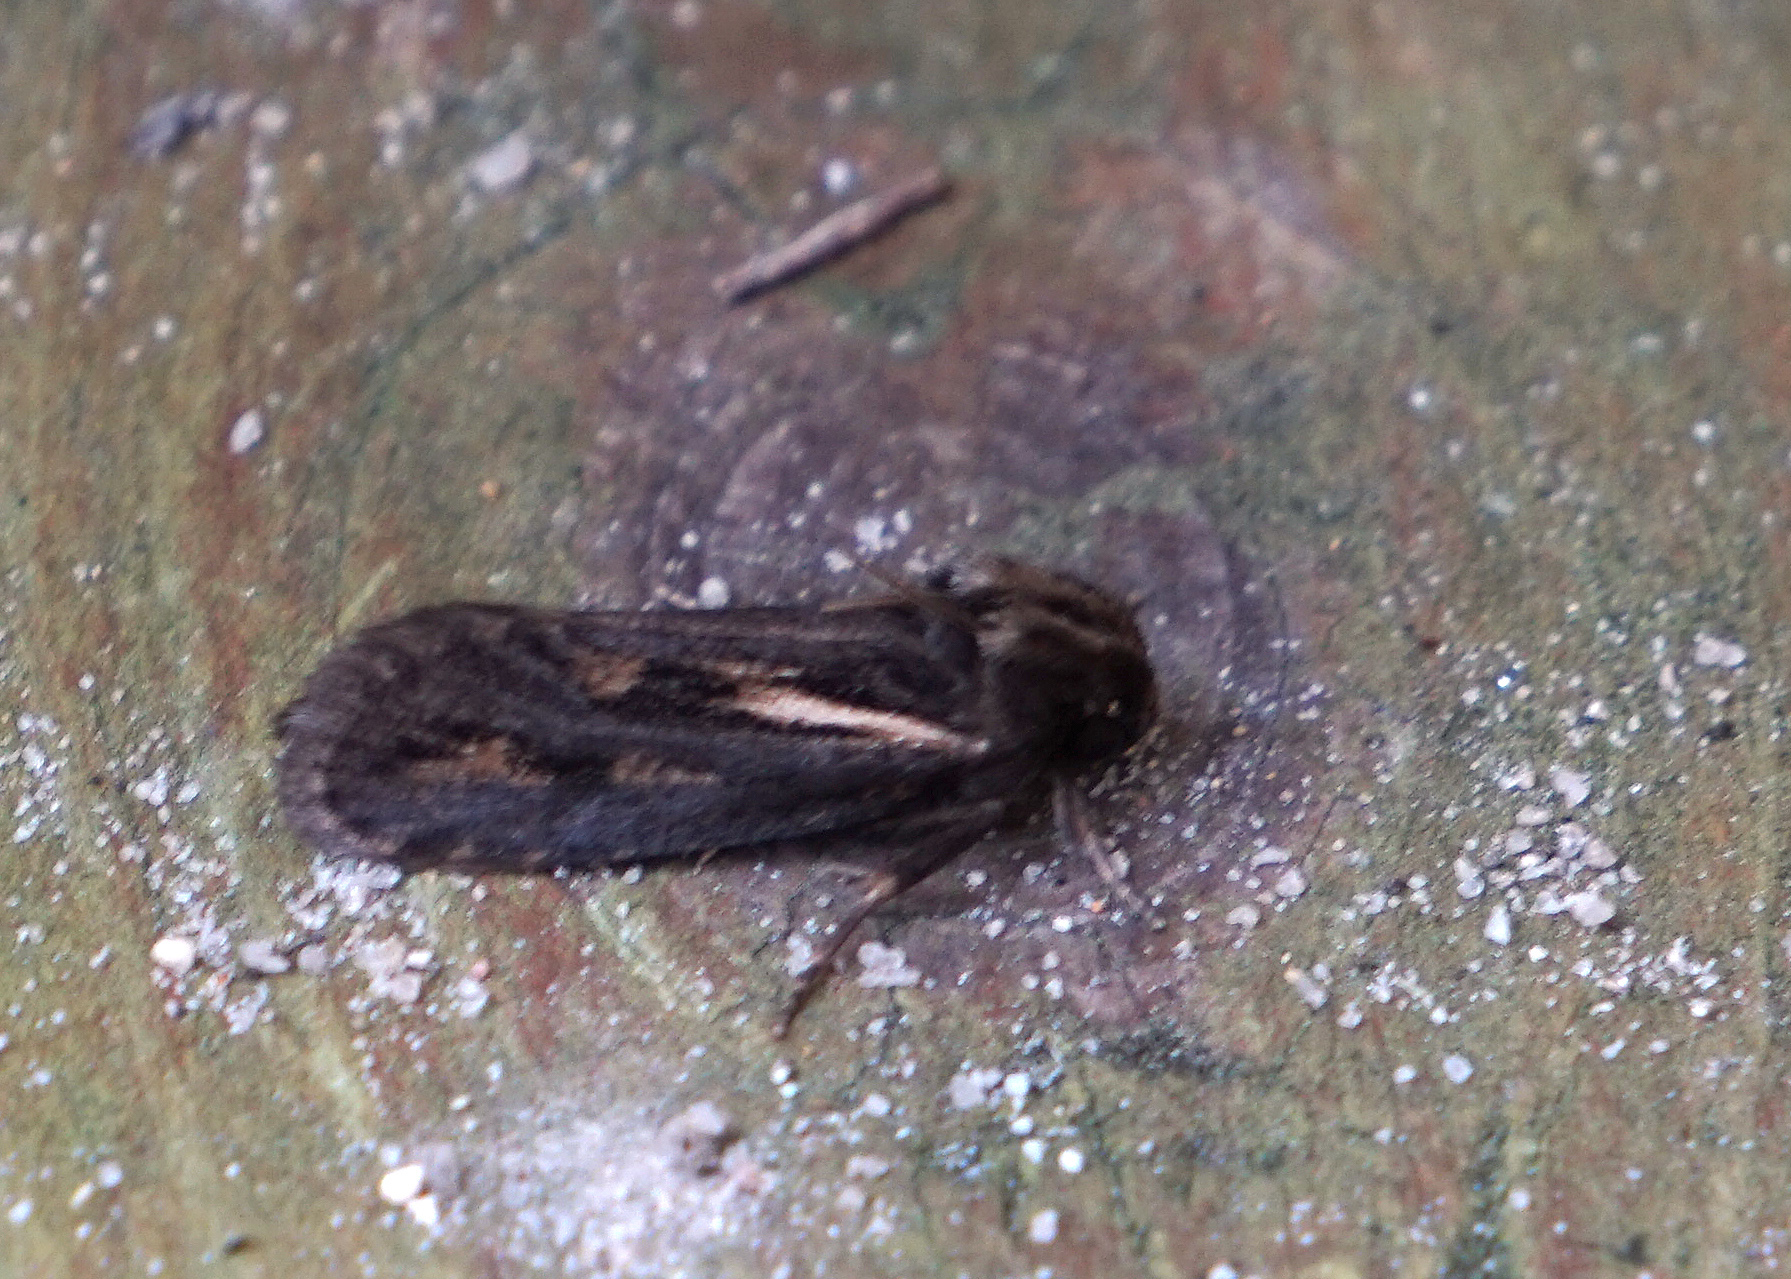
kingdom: Animalia
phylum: Arthropoda
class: Insecta
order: Lepidoptera
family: Tineidae
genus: Acrolophus
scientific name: Acrolophus popeanella
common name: Clemens' grass tubeworm moth
